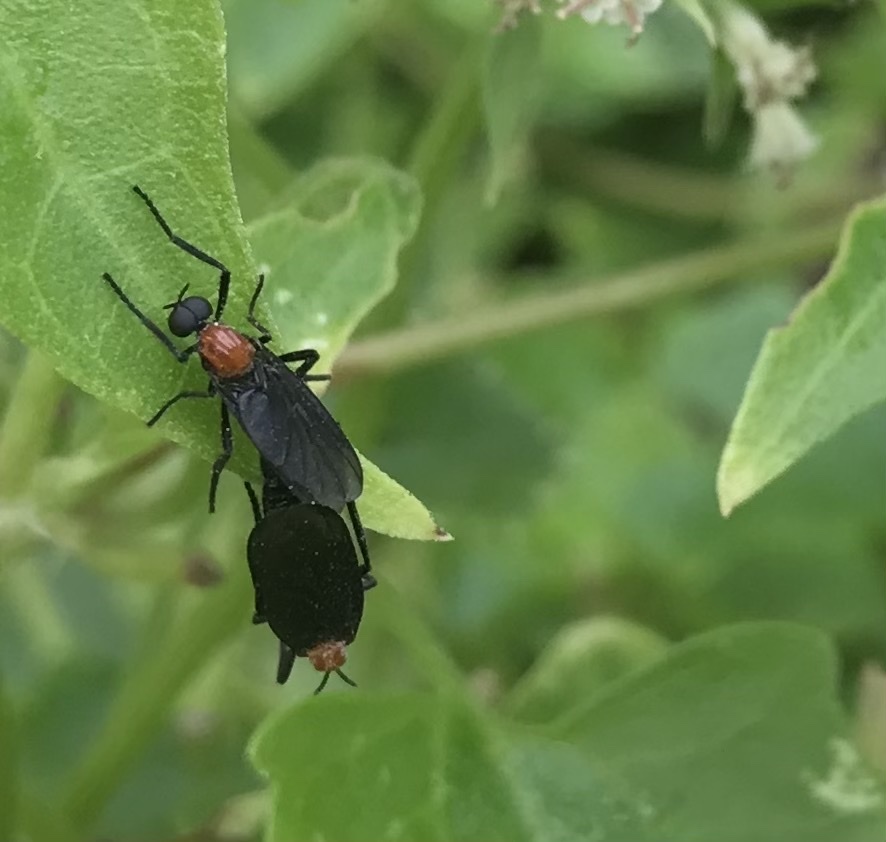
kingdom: Animalia
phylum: Arthropoda
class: Insecta
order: Diptera
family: Bibionidae
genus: Plecia
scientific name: Plecia nearctica
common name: March fly
